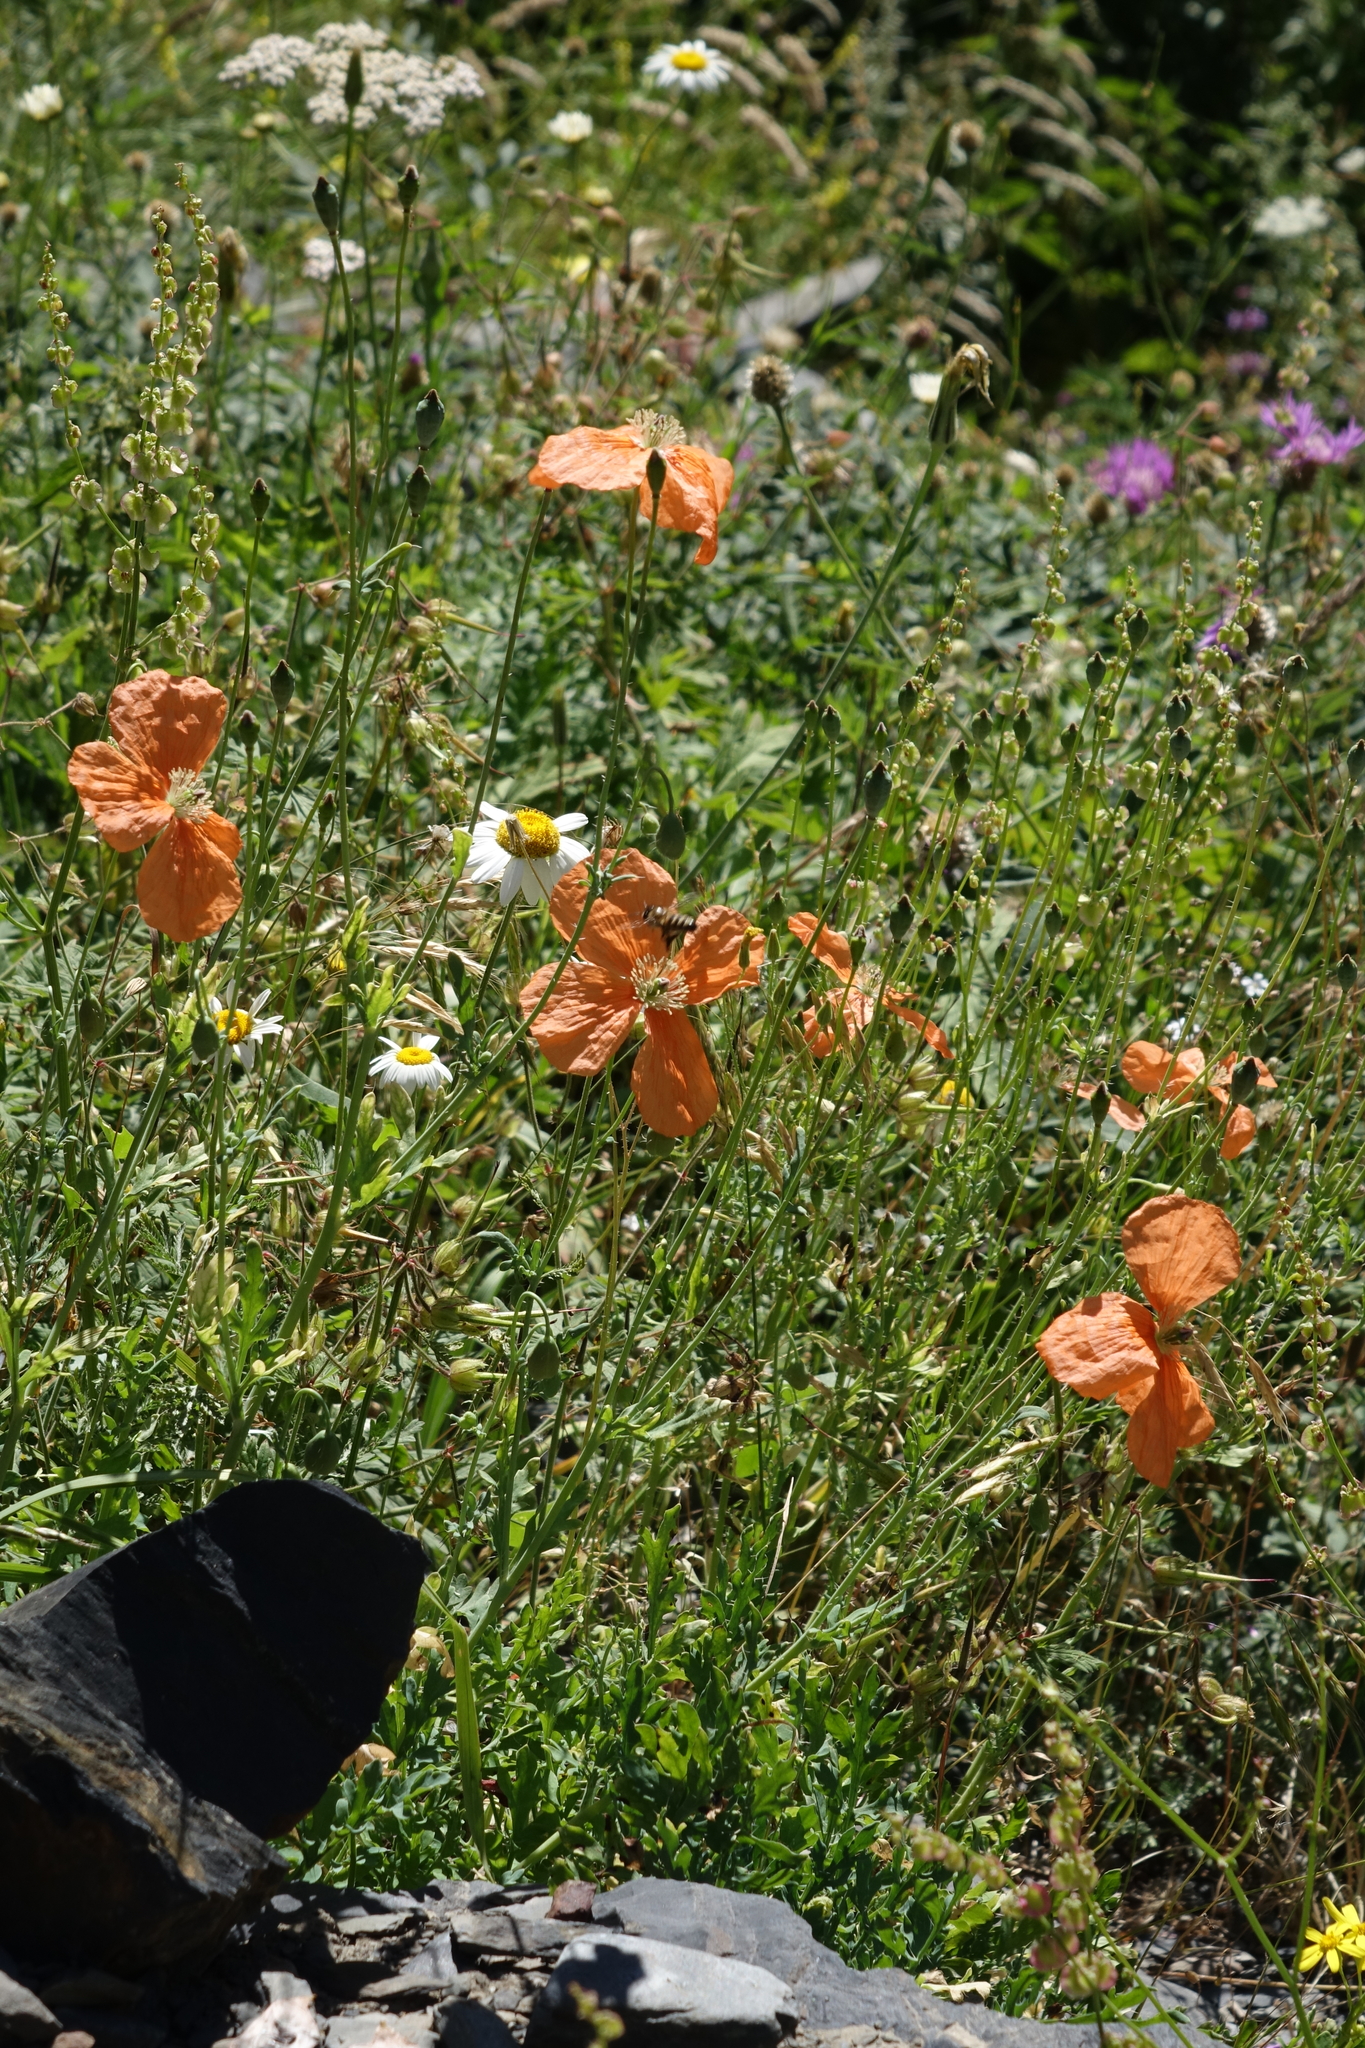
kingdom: Plantae
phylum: Tracheophyta
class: Magnoliopsida
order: Ranunculales
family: Papaveraceae
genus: Papaver
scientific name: Papaver armeniacum
